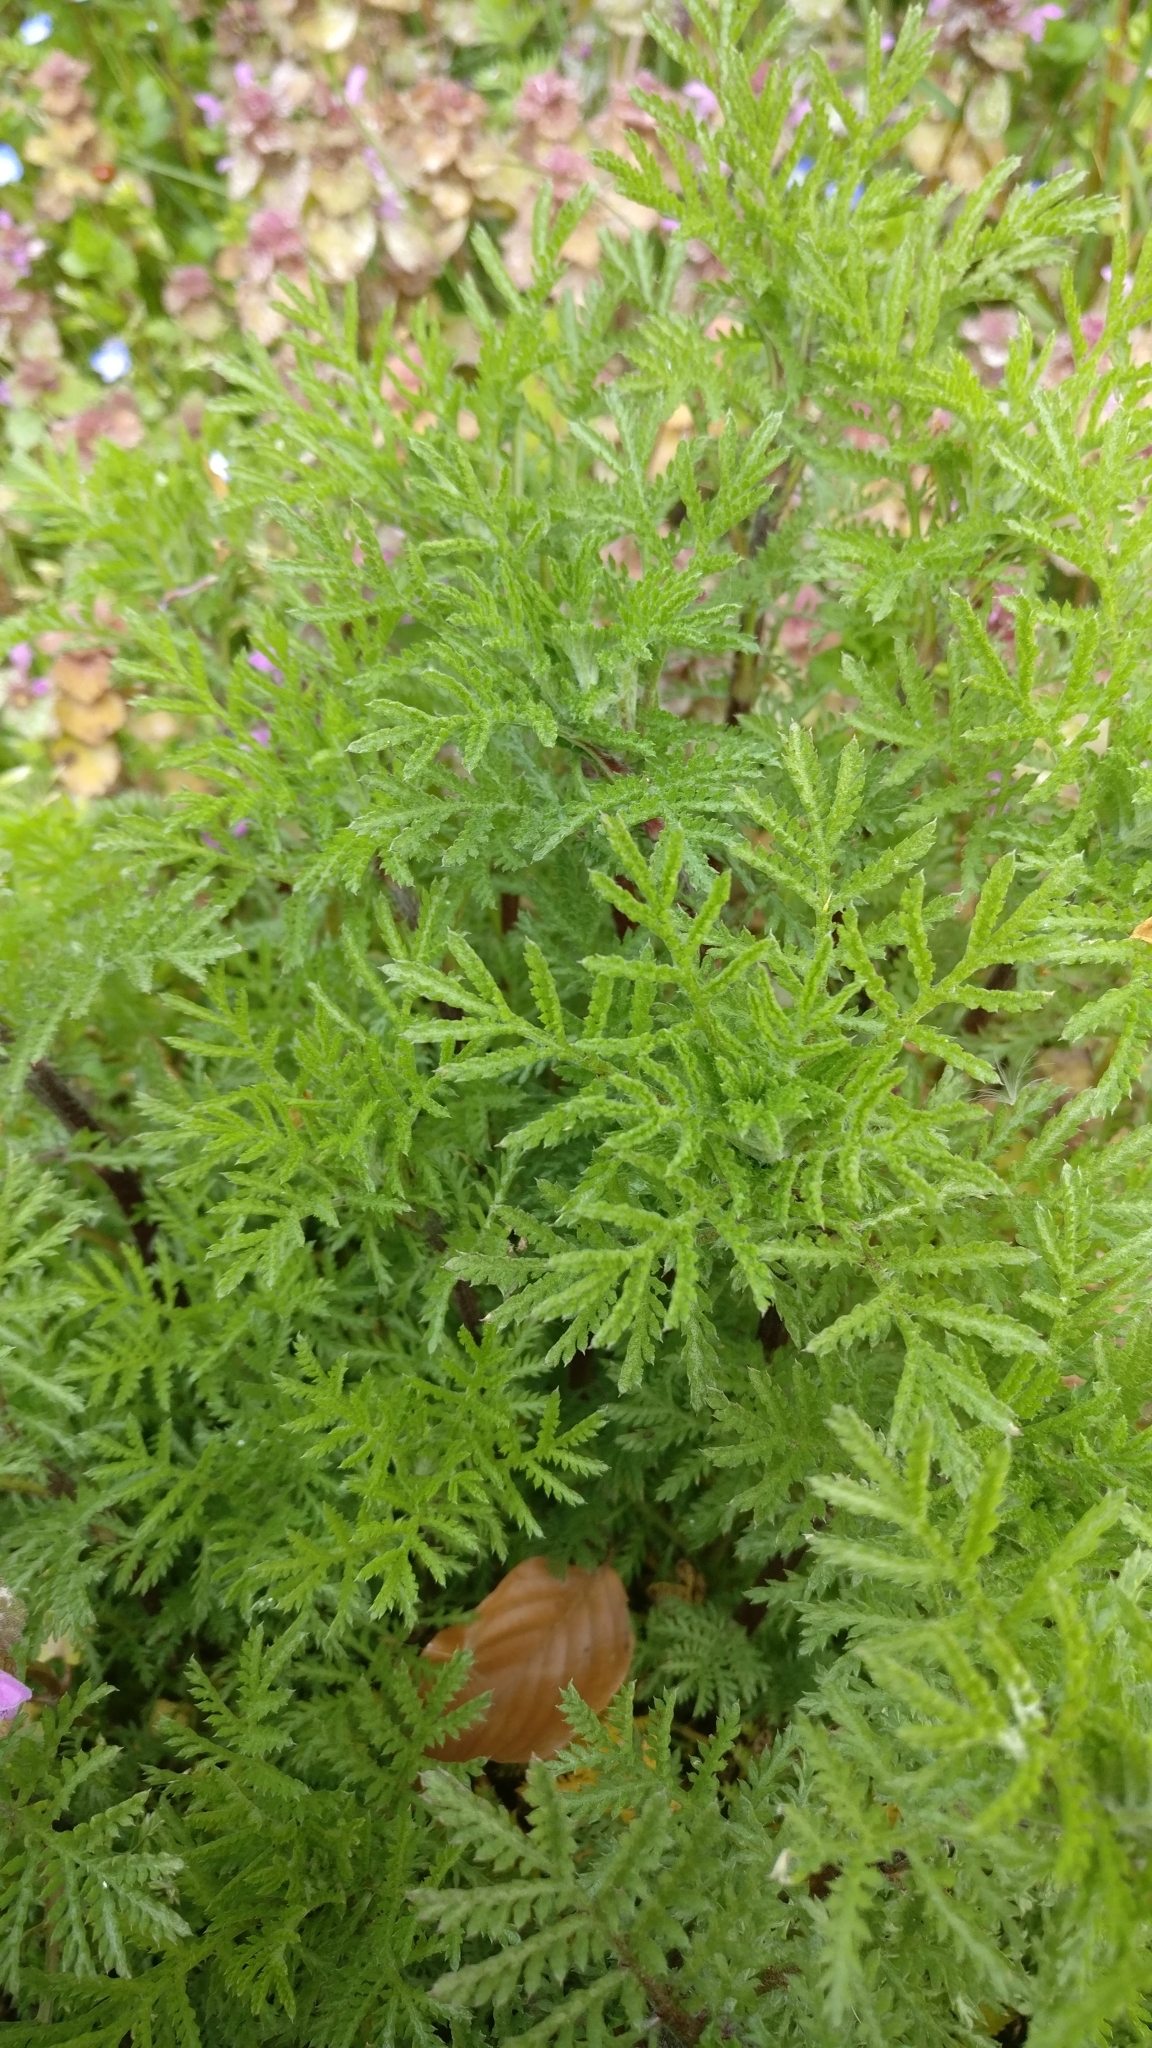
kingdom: Plantae
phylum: Tracheophyta
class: Magnoliopsida
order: Asterales
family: Asteraceae
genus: Cota
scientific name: Cota tinctoria
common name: Golden chamomile
